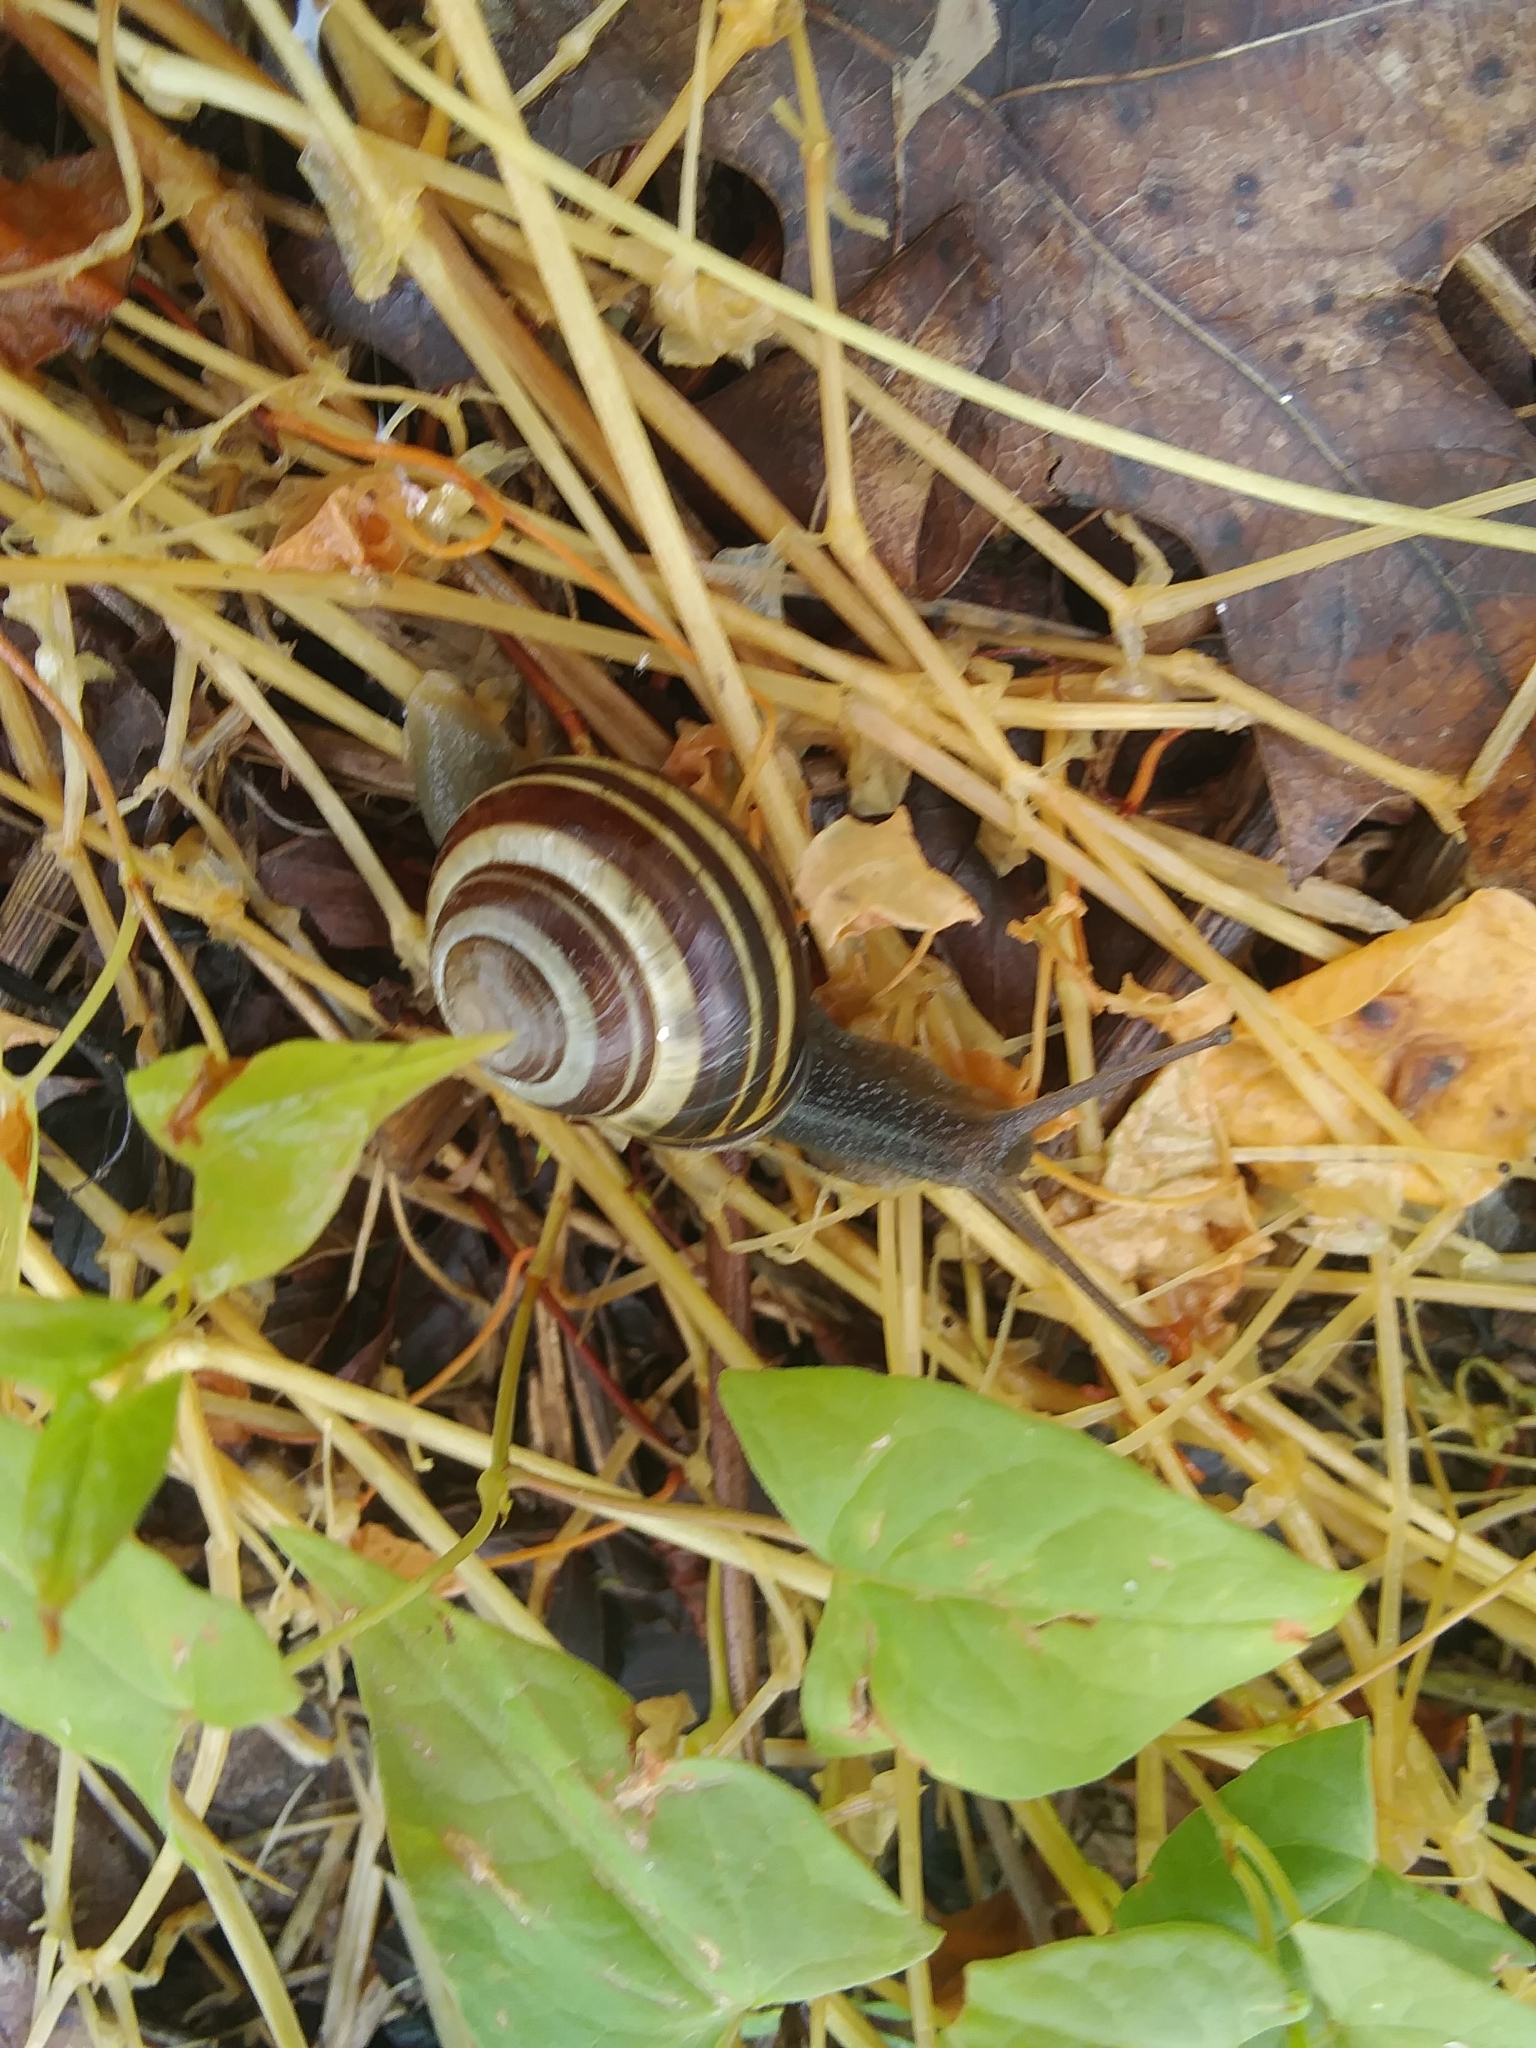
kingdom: Animalia
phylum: Mollusca
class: Gastropoda
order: Stylommatophora
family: Helicidae
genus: Cepaea
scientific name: Cepaea nemoralis
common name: Grovesnail
